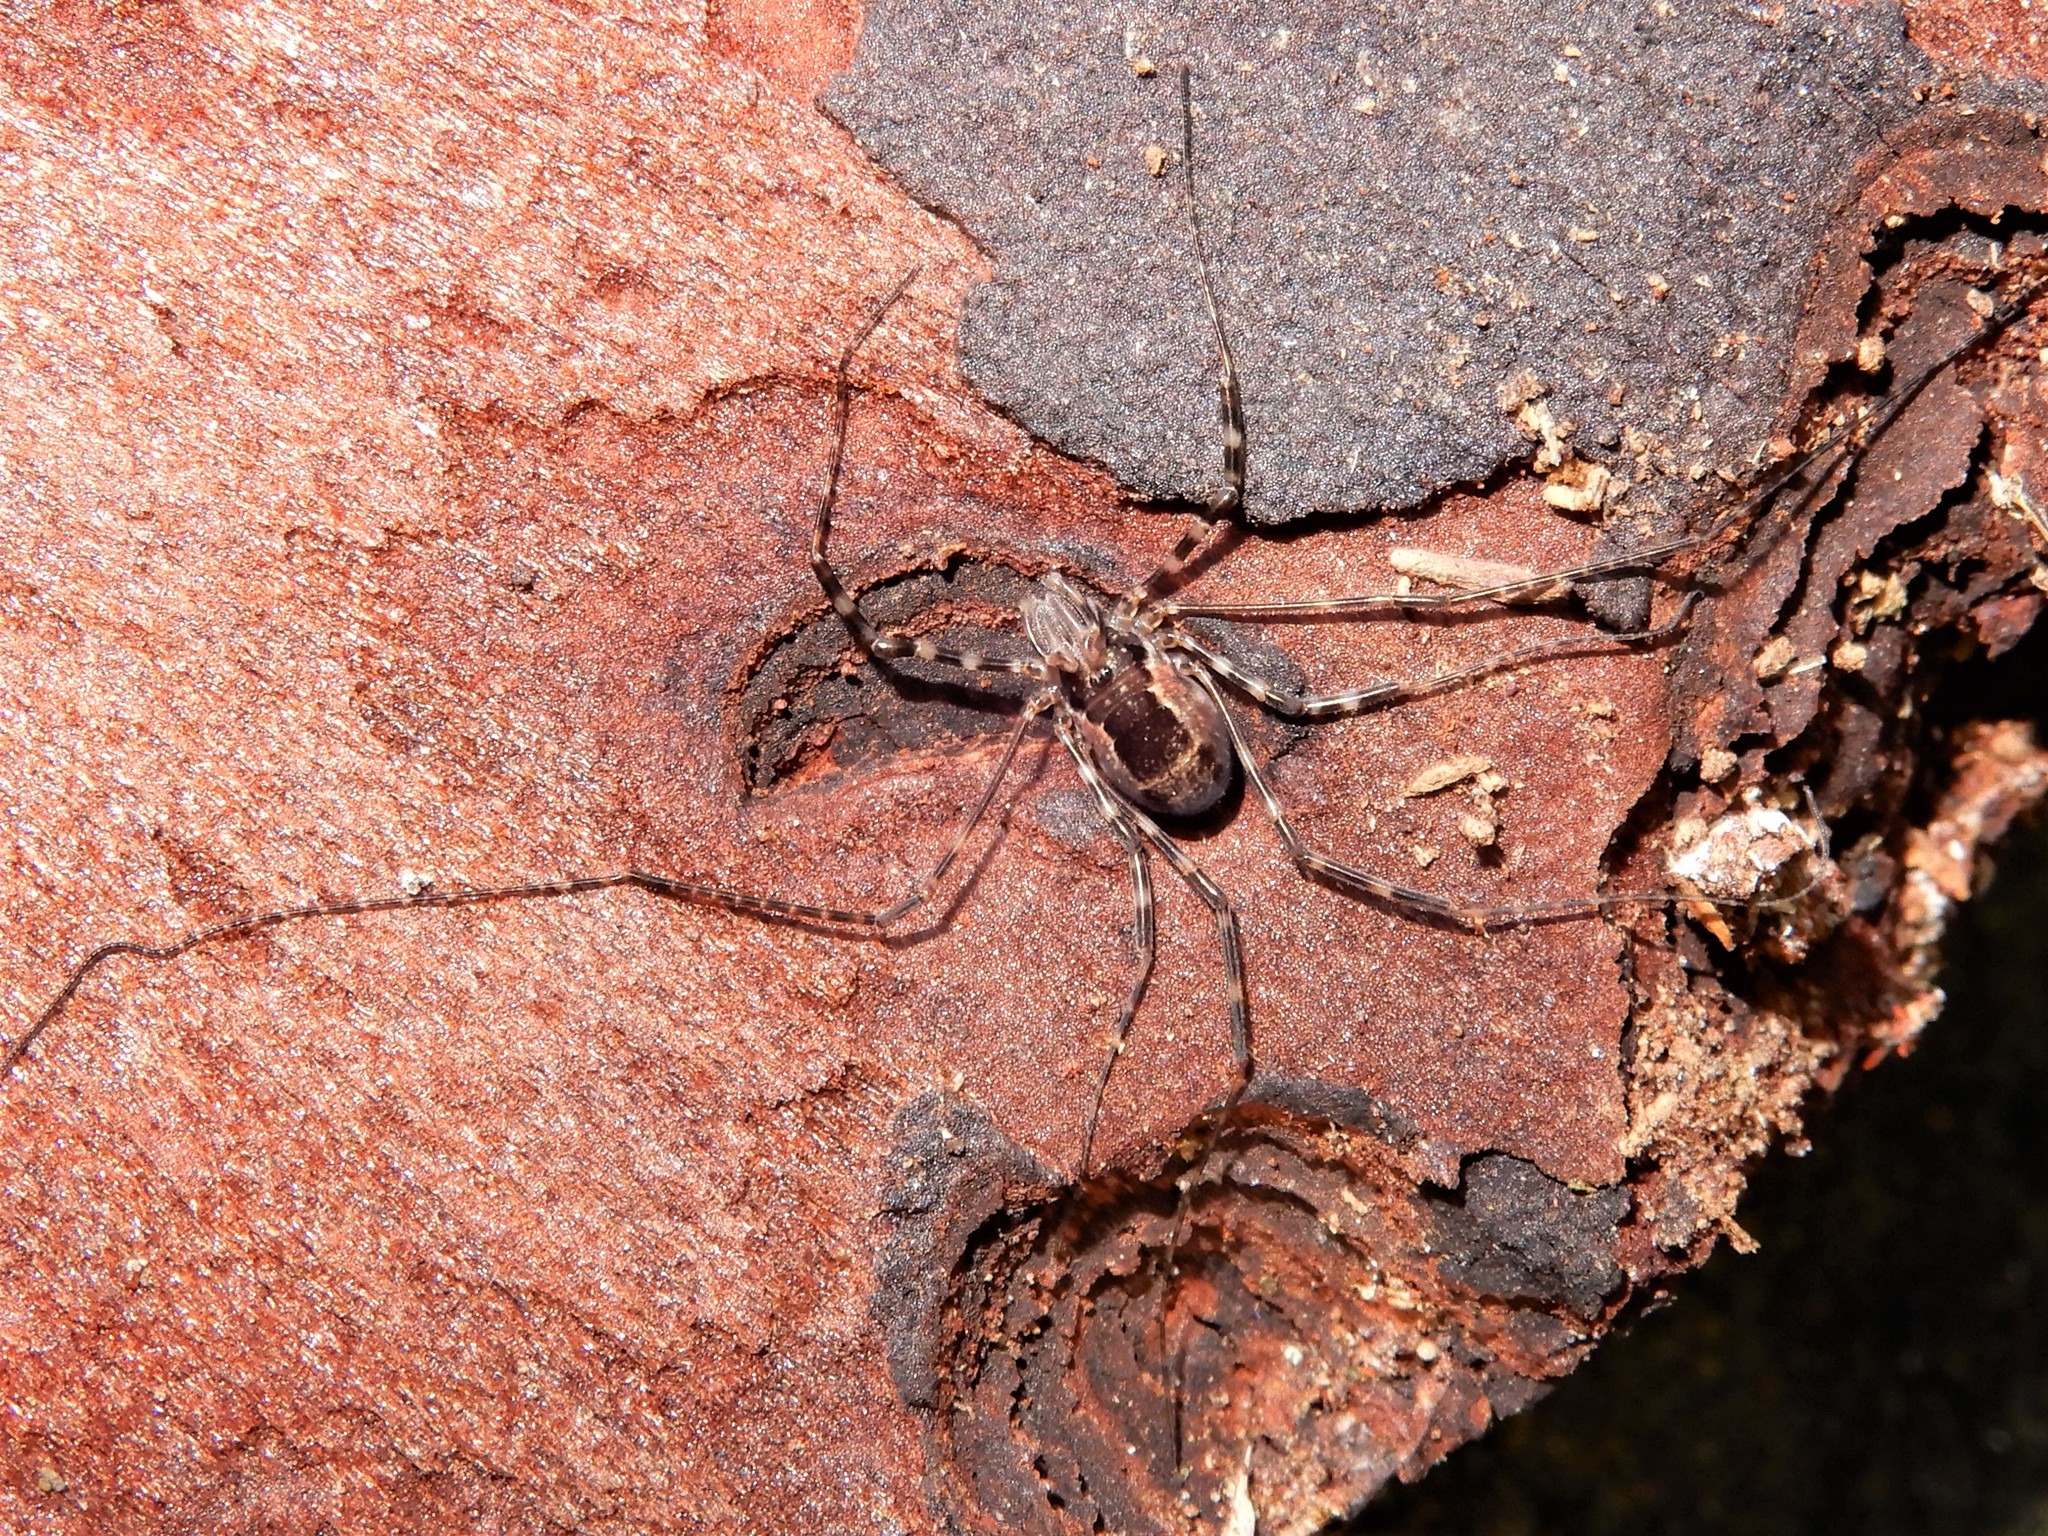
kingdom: Animalia
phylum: Arthropoda
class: Arachnida
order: Opiliones
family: Neopilionidae
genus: Megalopsalis
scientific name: Megalopsalis triascuta
